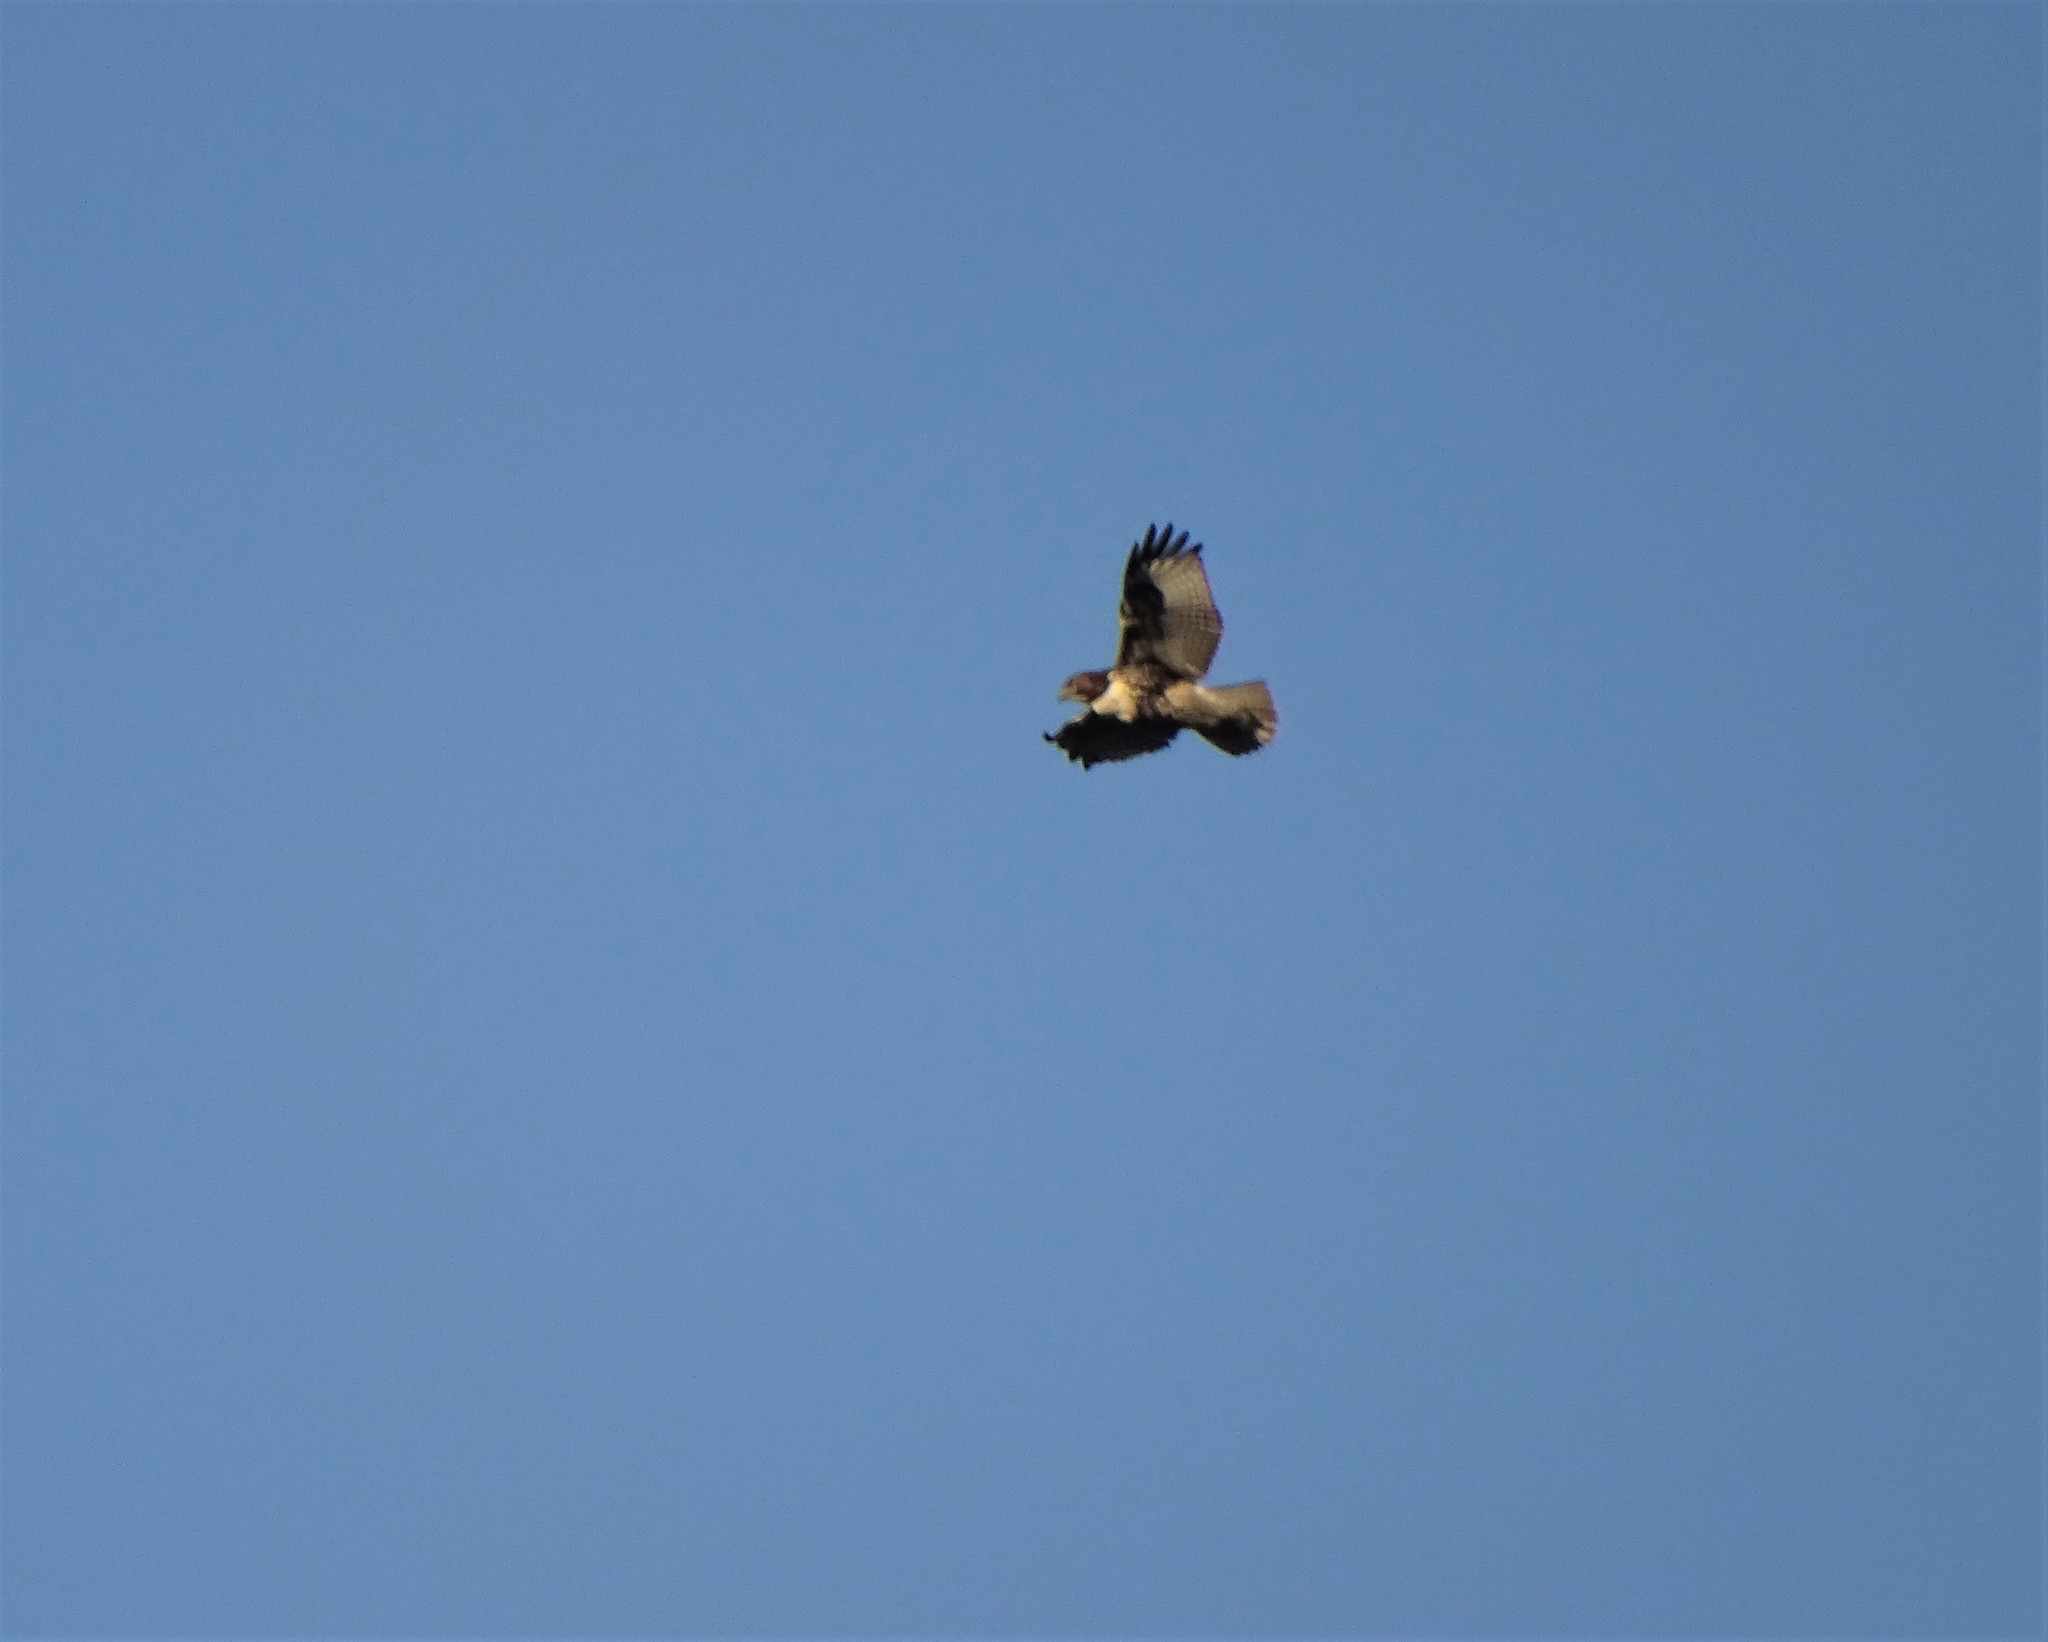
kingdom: Animalia
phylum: Chordata
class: Aves
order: Accipitriformes
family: Accipitridae
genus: Buteo
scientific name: Buteo jamaicensis
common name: Red-tailed hawk
